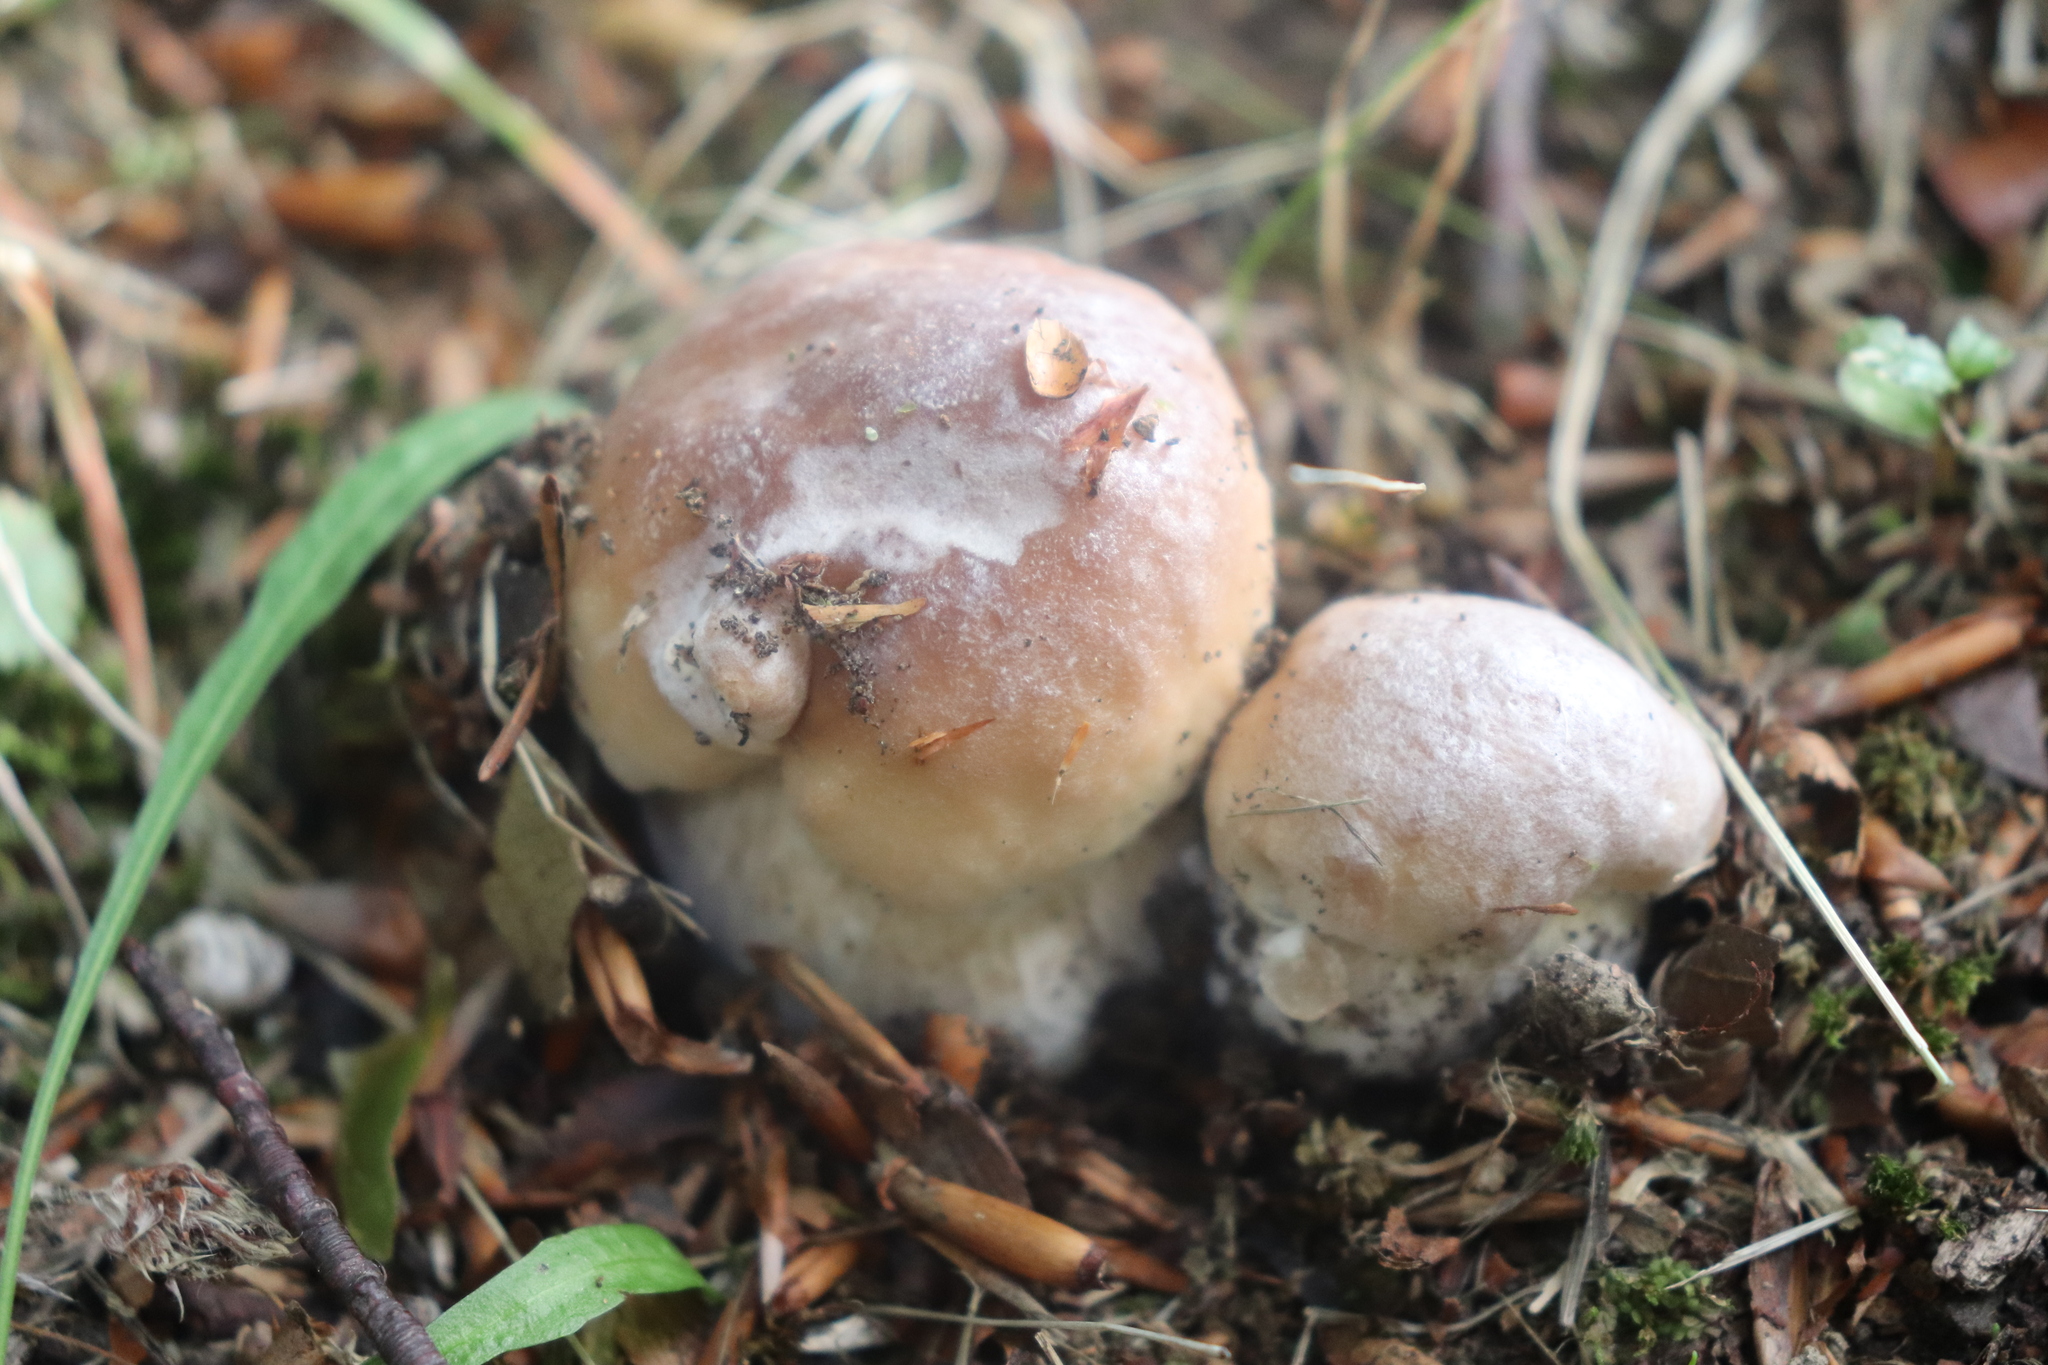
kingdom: Fungi
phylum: Basidiomycota
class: Agaricomycetes
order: Boletales
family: Boletaceae
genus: Boletus
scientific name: Boletus edulis
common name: Cep
